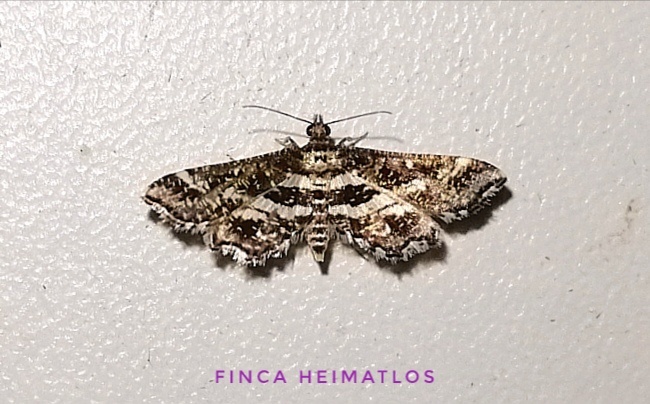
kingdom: Animalia
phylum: Arthropoda
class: Insecta
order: Lepidoptera
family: Crambidae
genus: Diasemiopsis
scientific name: Diasemiopsis ramburialis
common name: Vagrant china-mark
